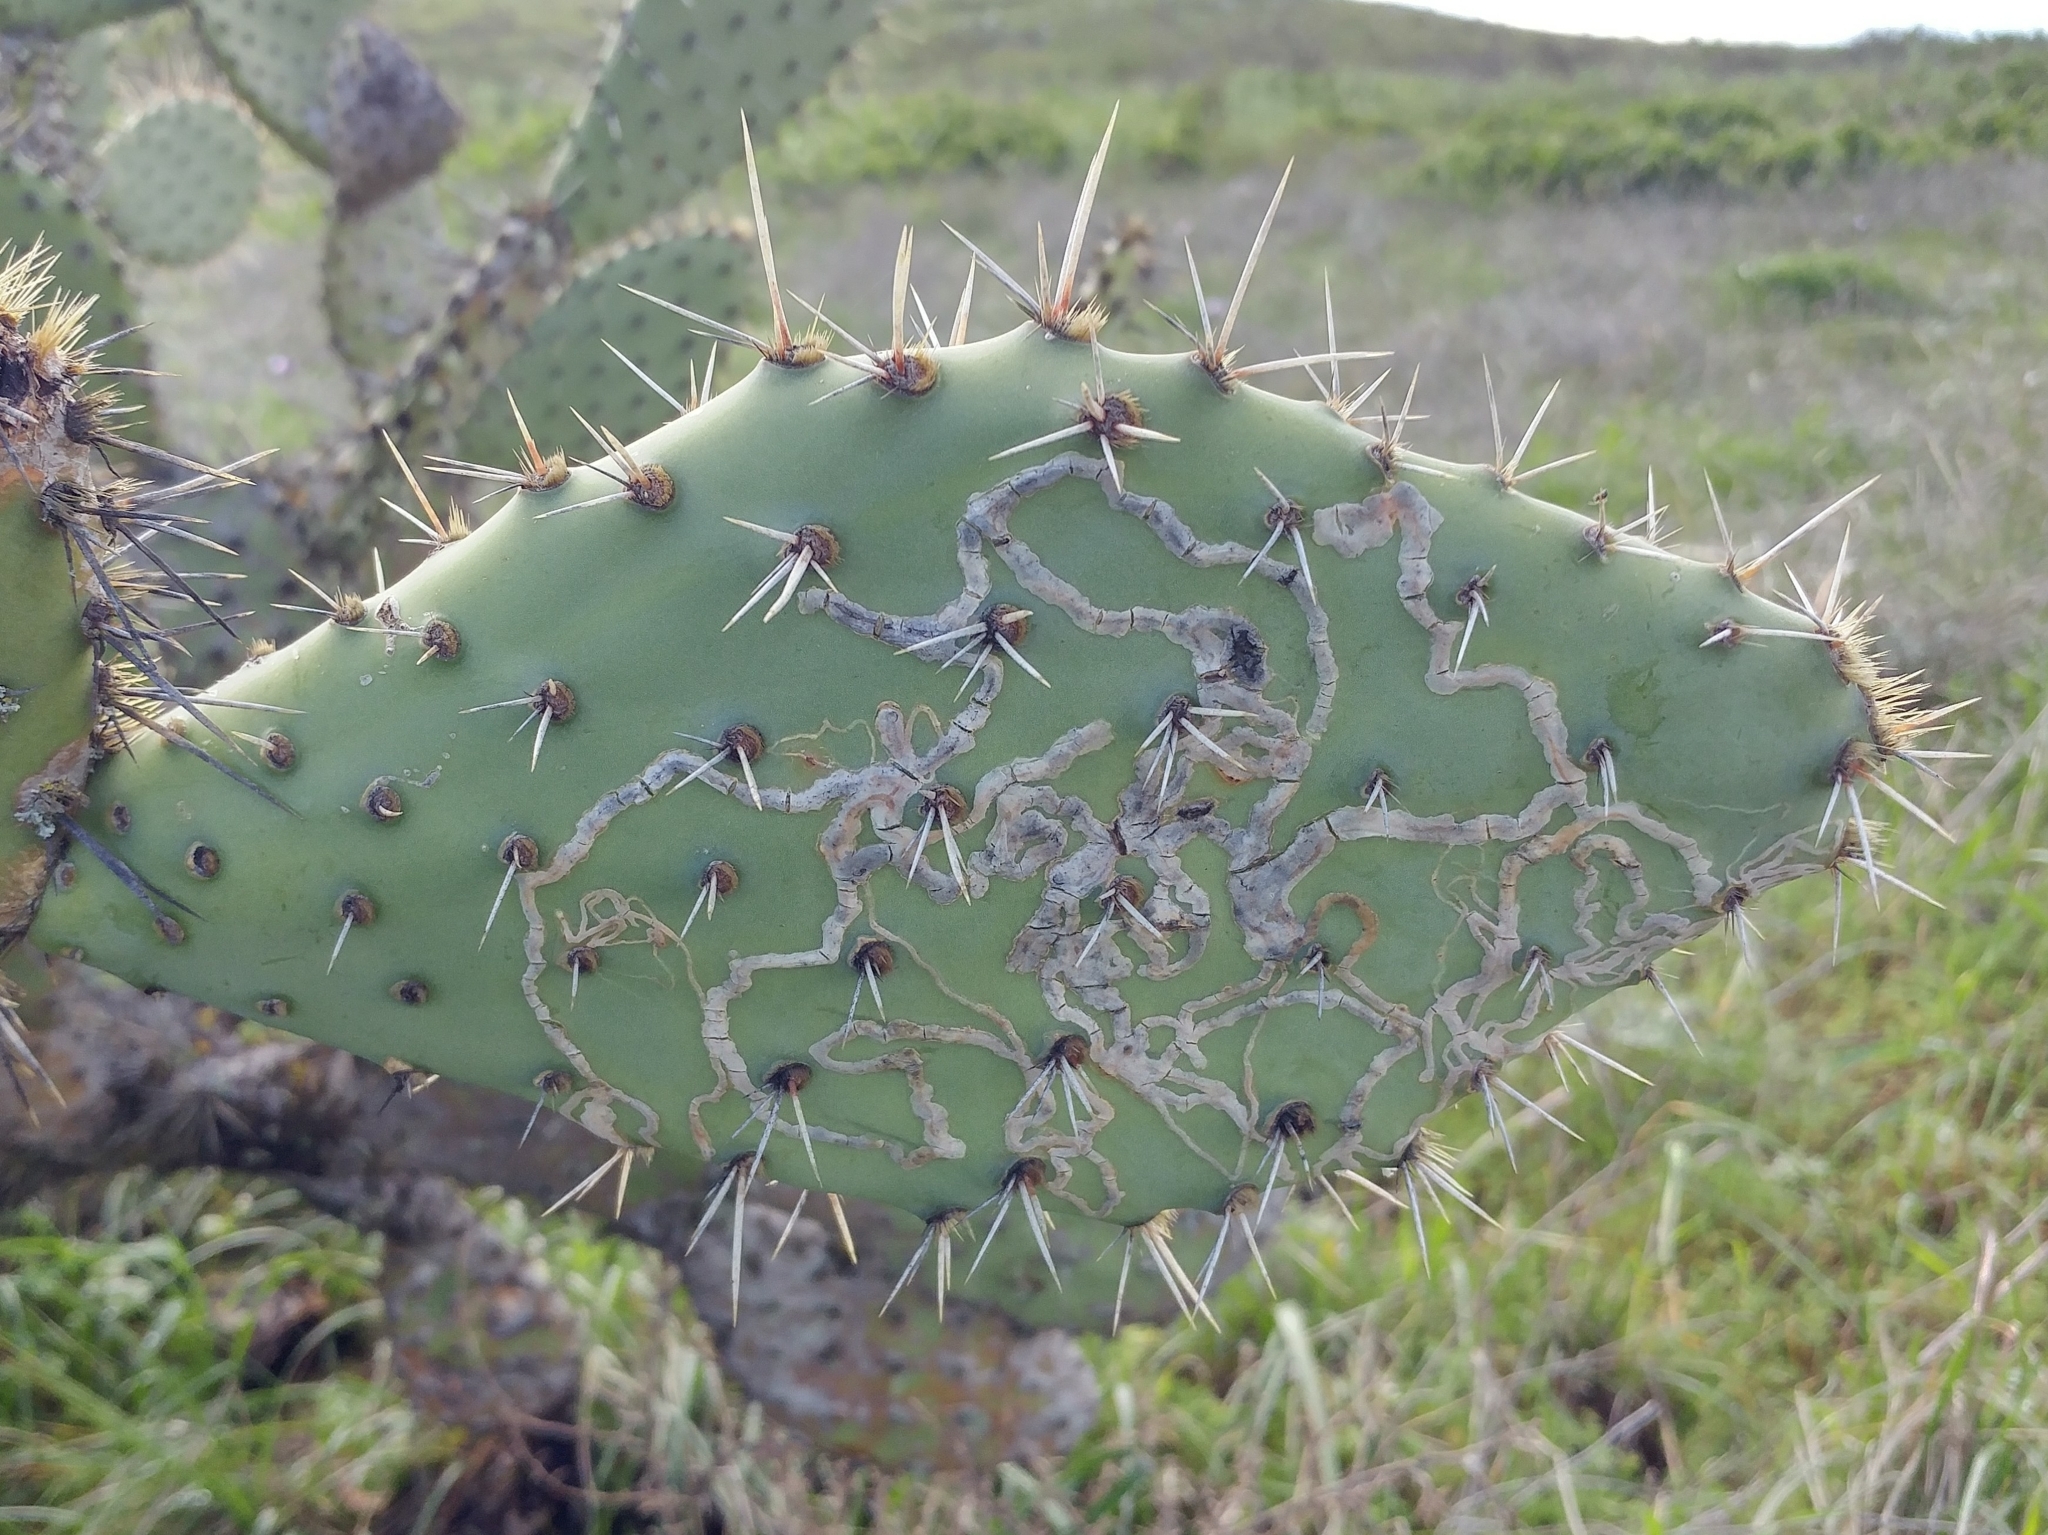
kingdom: Plantae
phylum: Tracheophyta
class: Magnoliopsida
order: Caryophyllales
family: Cactaceae
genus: Opuntia
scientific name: Opuntia littoralis
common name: Coastal prickly-pear
